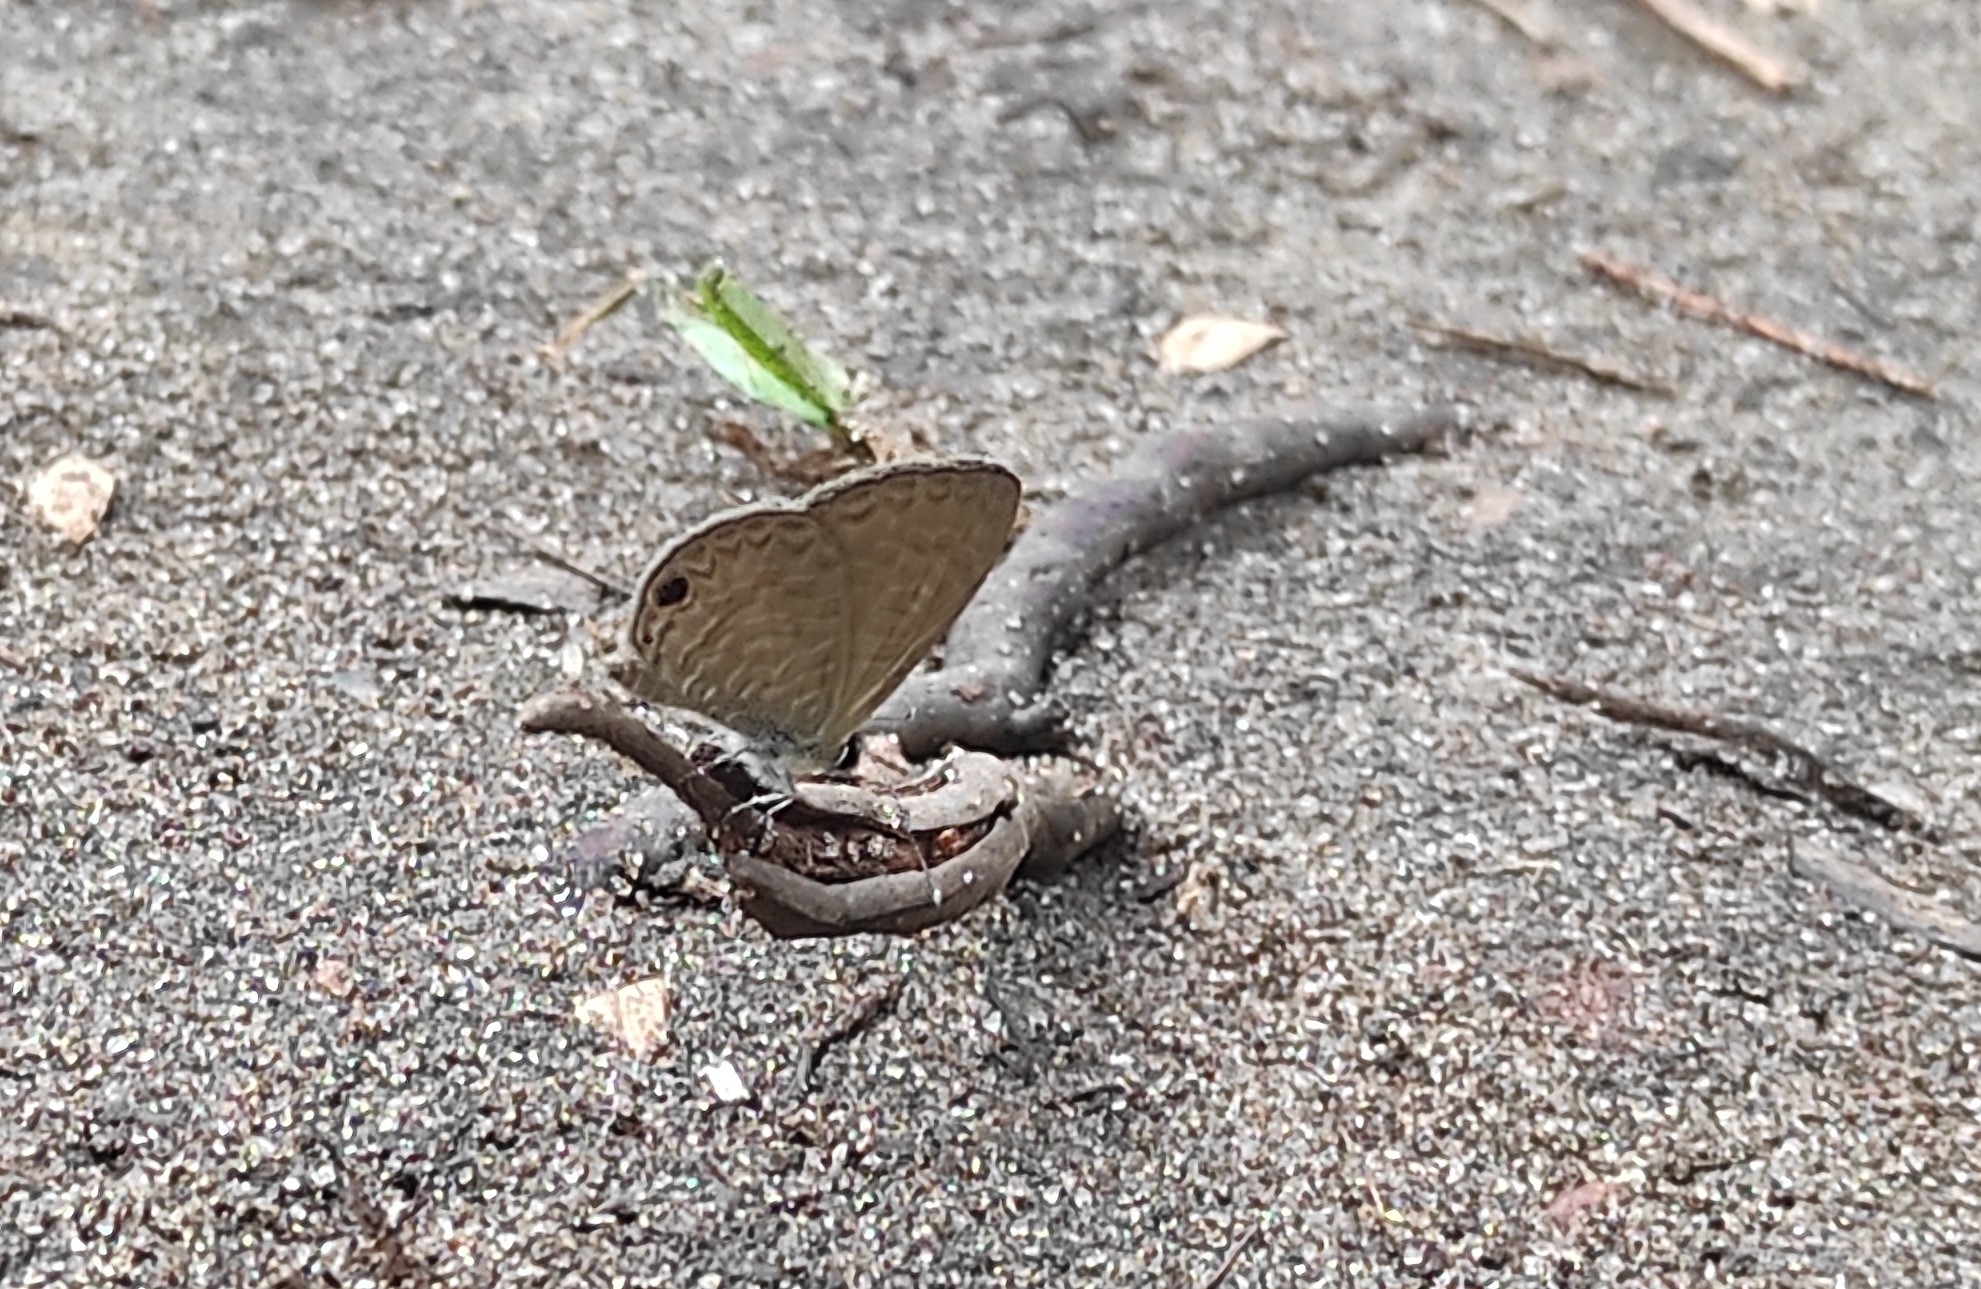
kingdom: Animalia
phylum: Arthropoda
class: Insecta
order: Lepidoptera
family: Lycaenidae
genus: Prosotas
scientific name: Prosotas dubiosa
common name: Tailless lineblue
